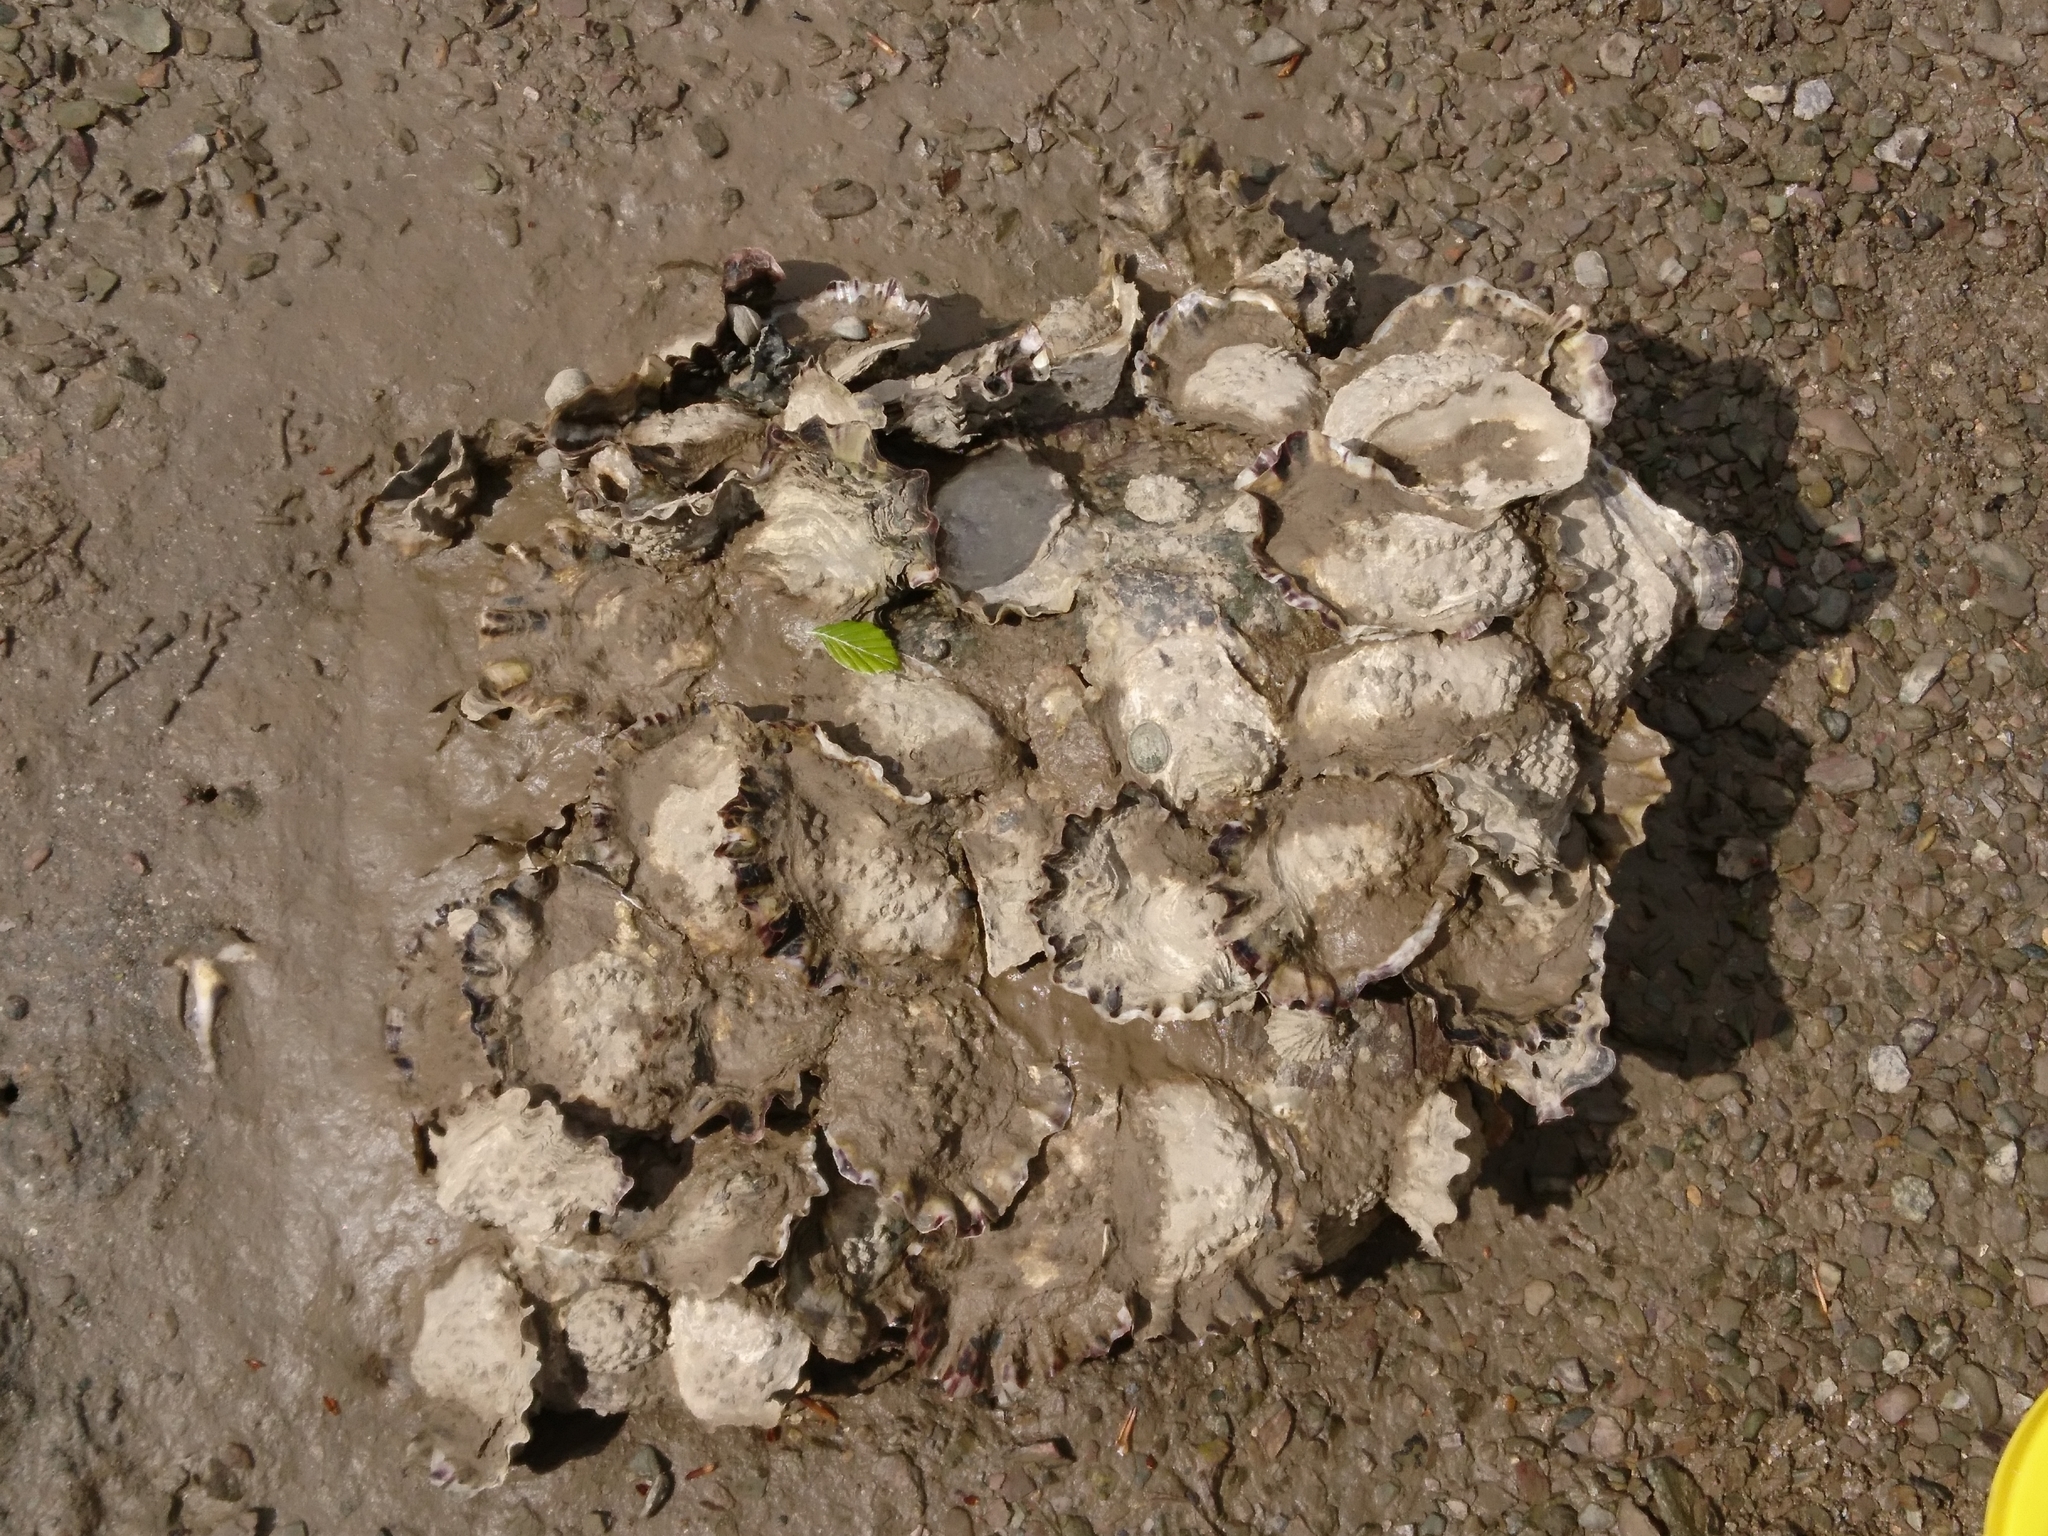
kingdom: Animalia
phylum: Mollusca
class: Bivalvia
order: Ostreida
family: Ostreidae
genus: Magallana
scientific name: Magallana gigas
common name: Pacific oyster
